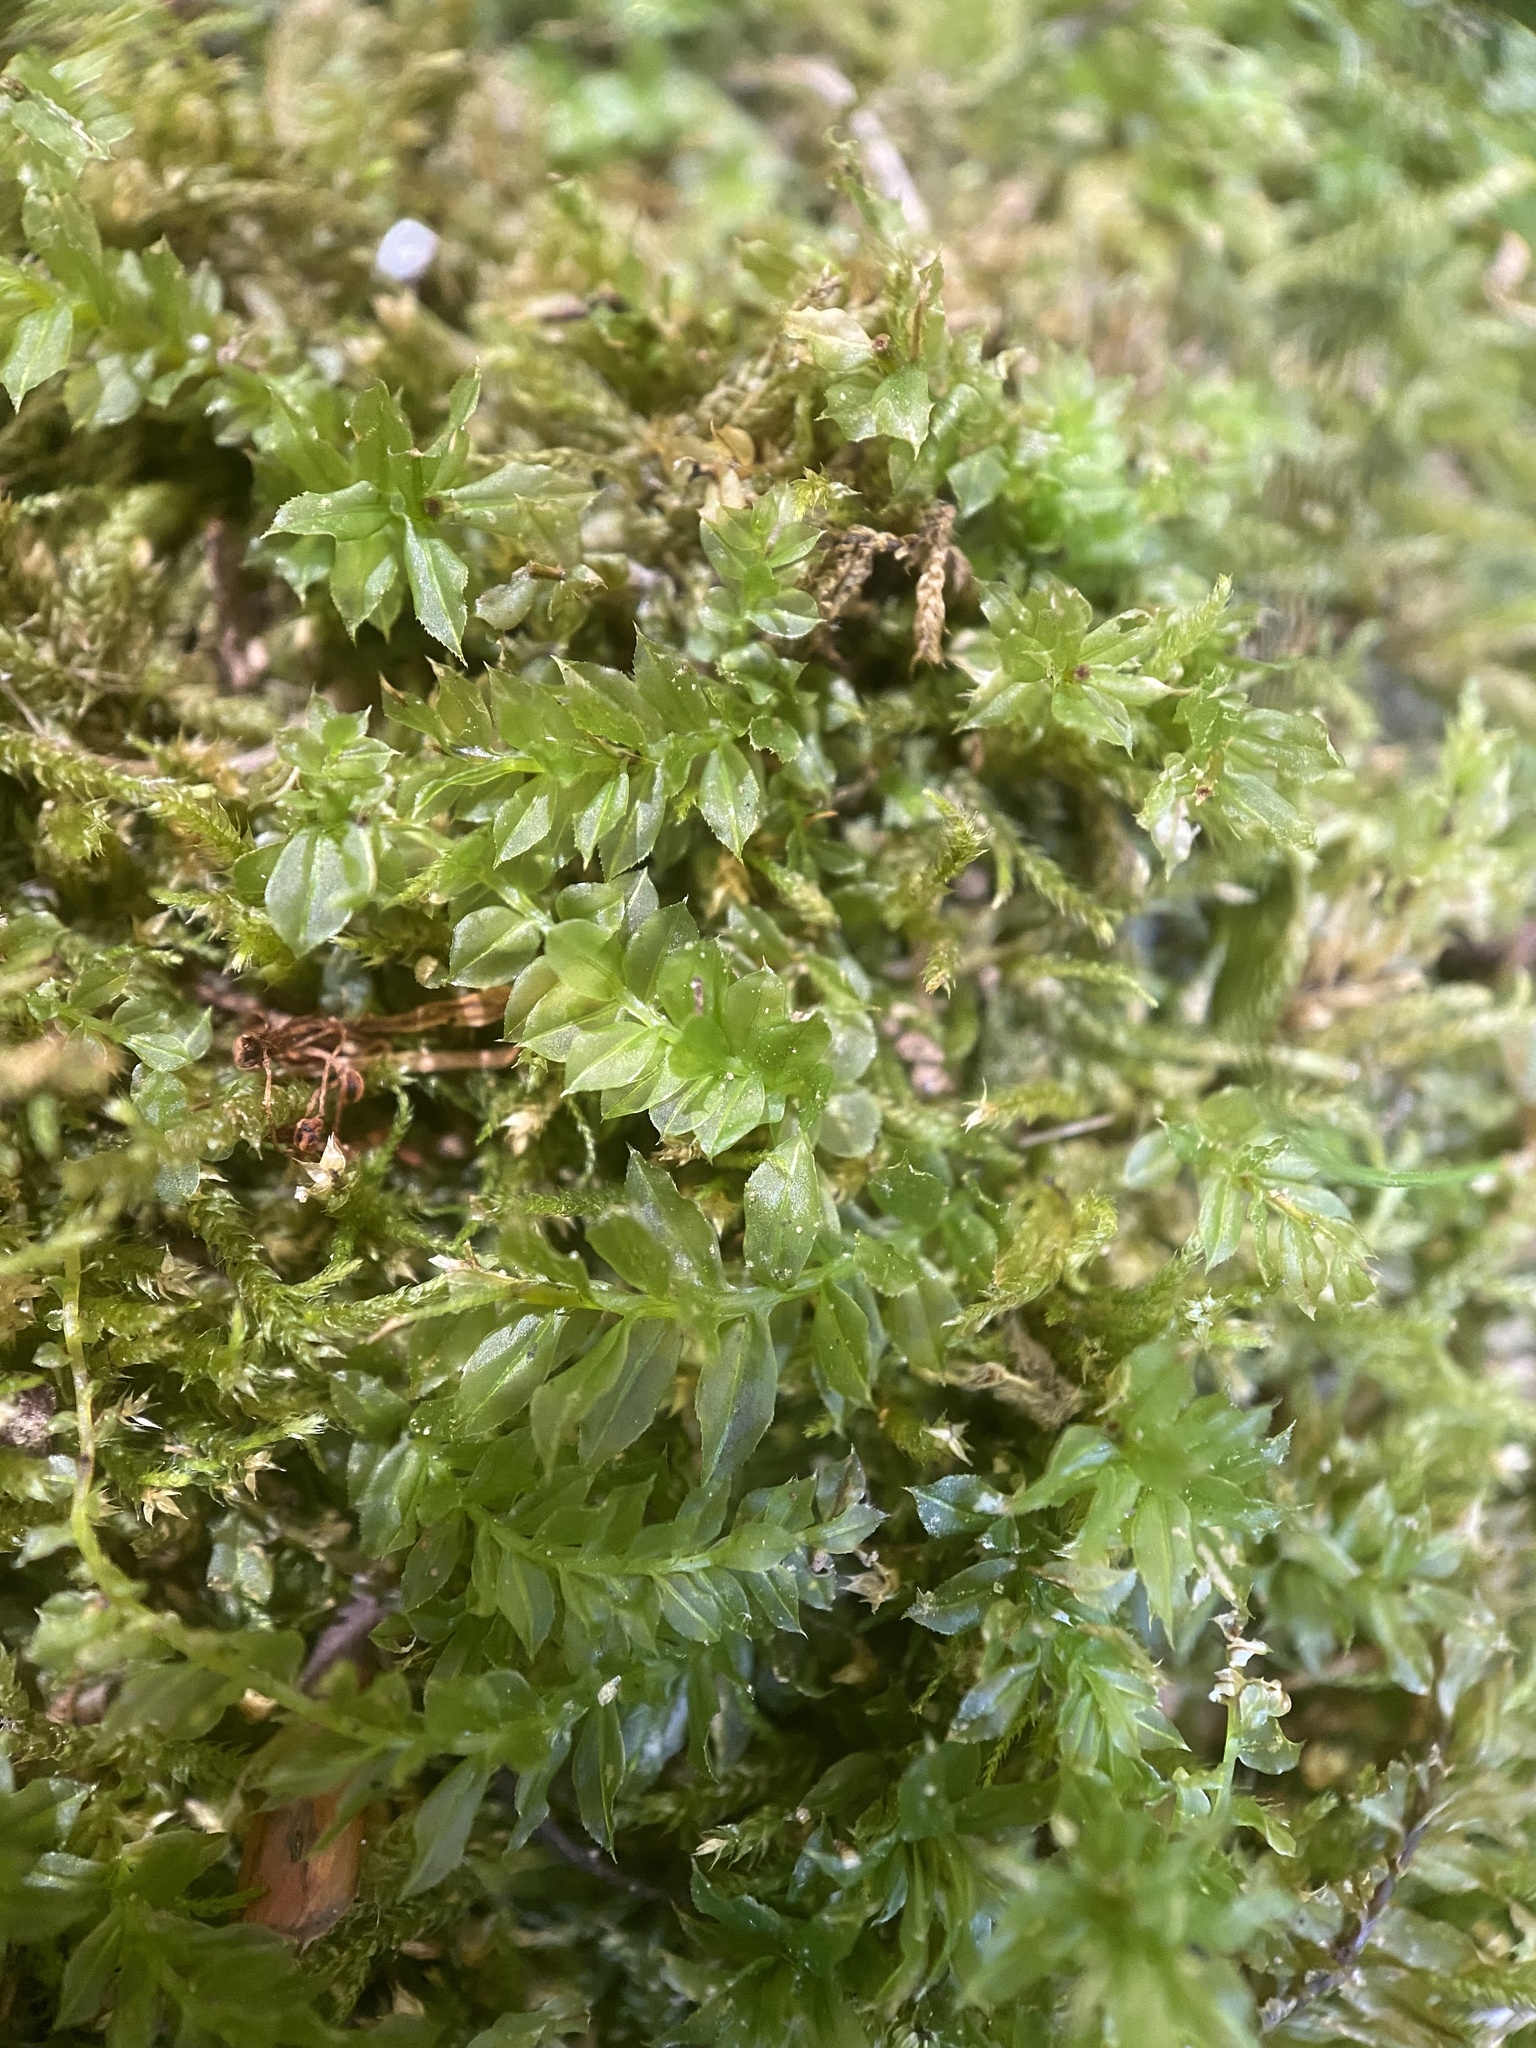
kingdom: Plantae
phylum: Bryophyta
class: Bryopsida
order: Bryales
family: Mniaceae
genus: Plagiomnium
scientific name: Plagiomnium cuspidatum
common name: Woodsy leafy moss
